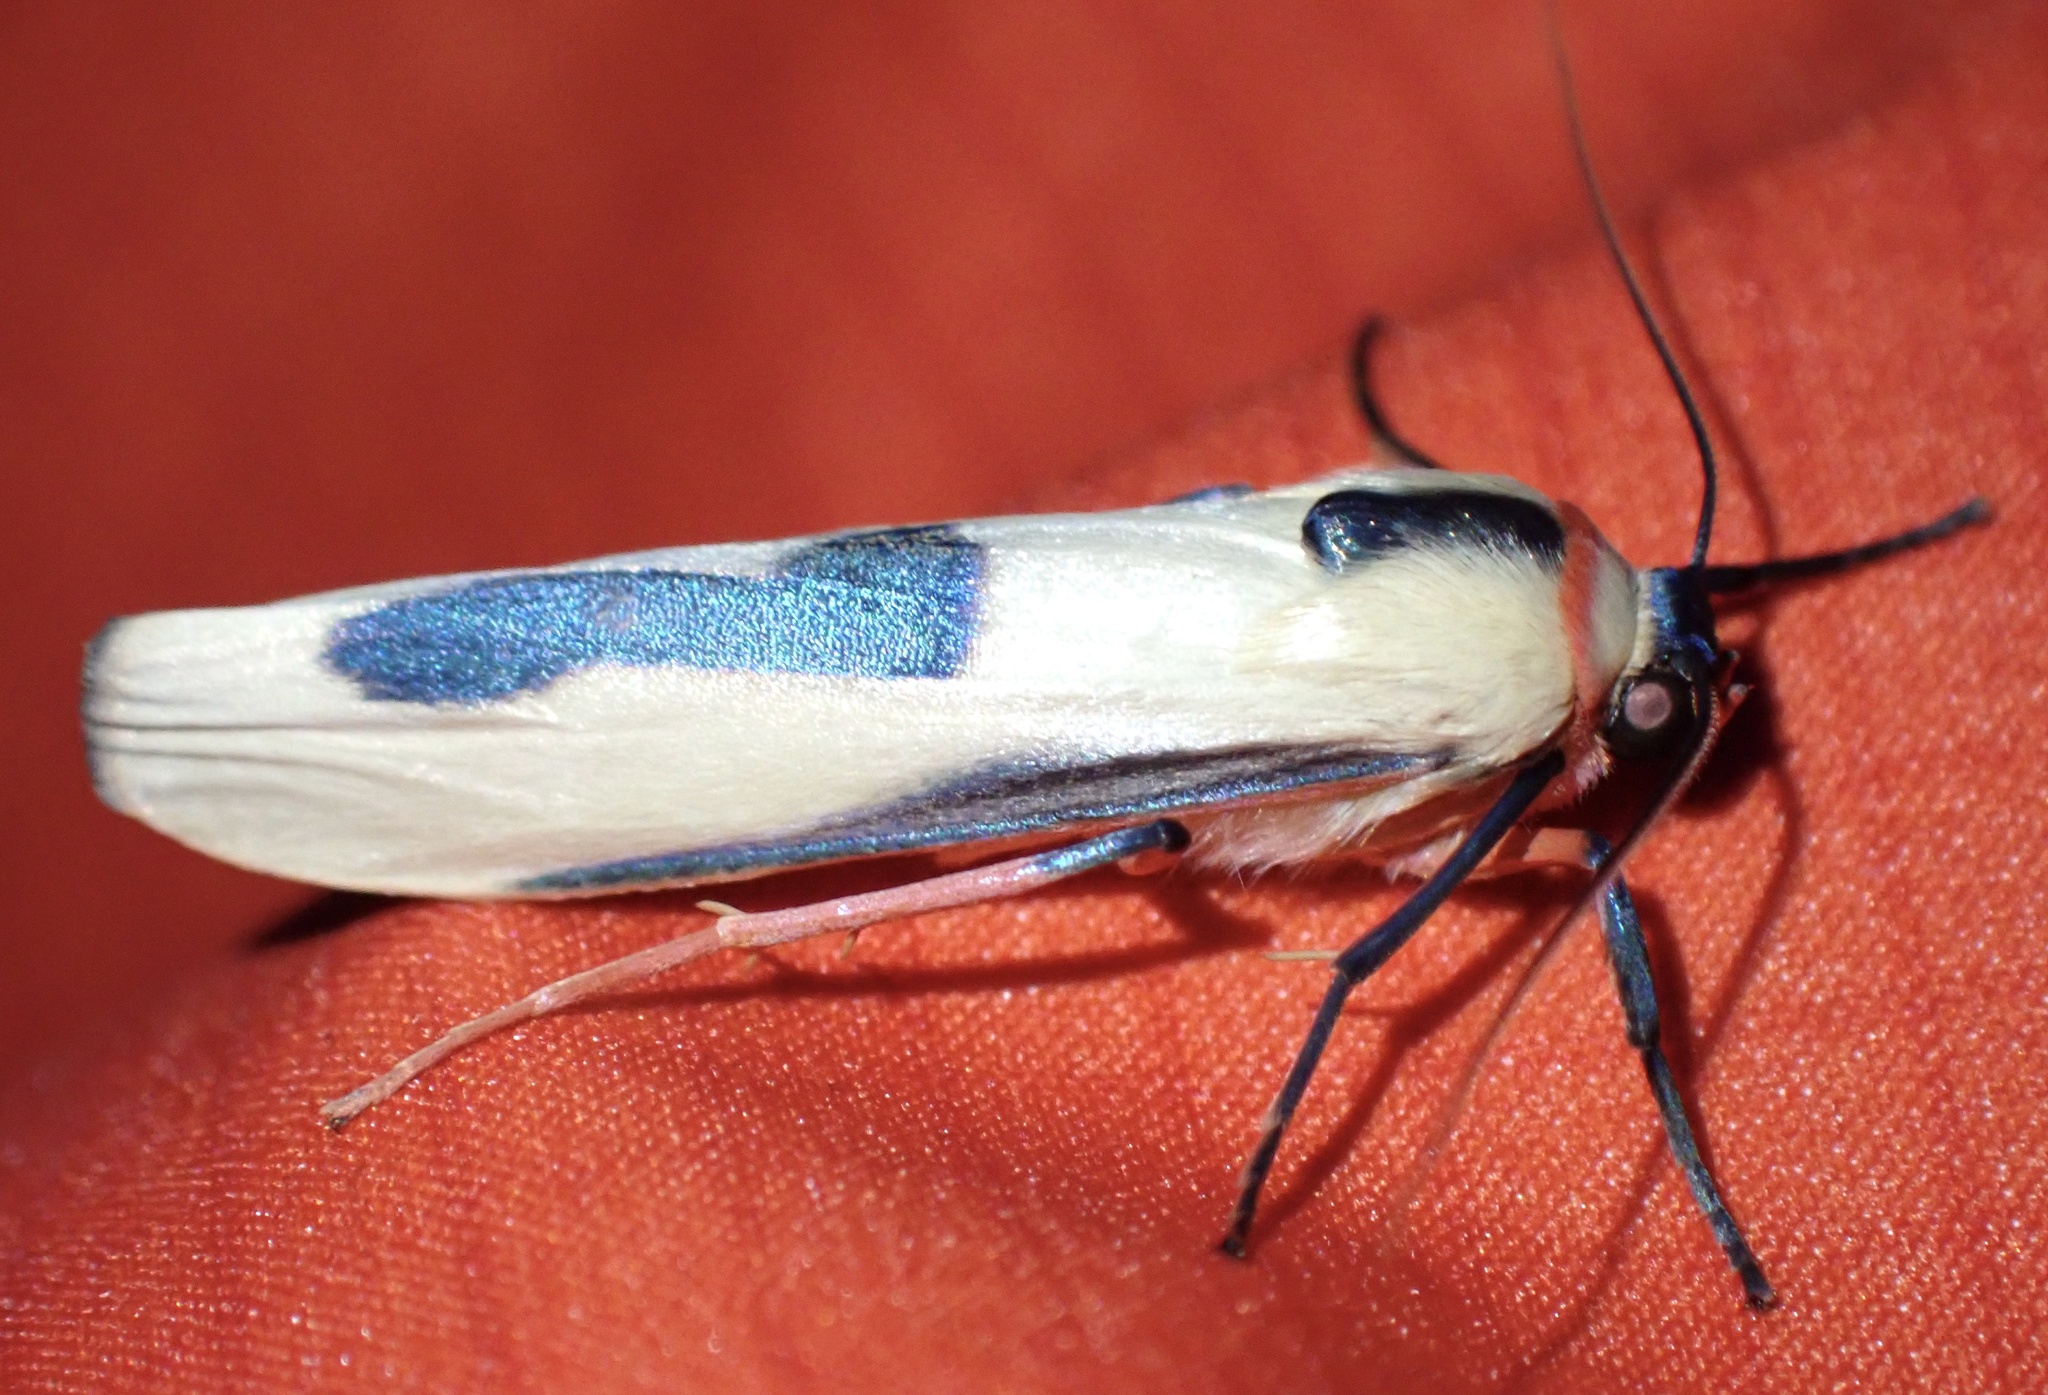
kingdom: Animalia
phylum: Arthropoda
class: Insecta
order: Lepidoptera
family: Erebidae
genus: Oeonistis
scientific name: Oeonistis bicolora
